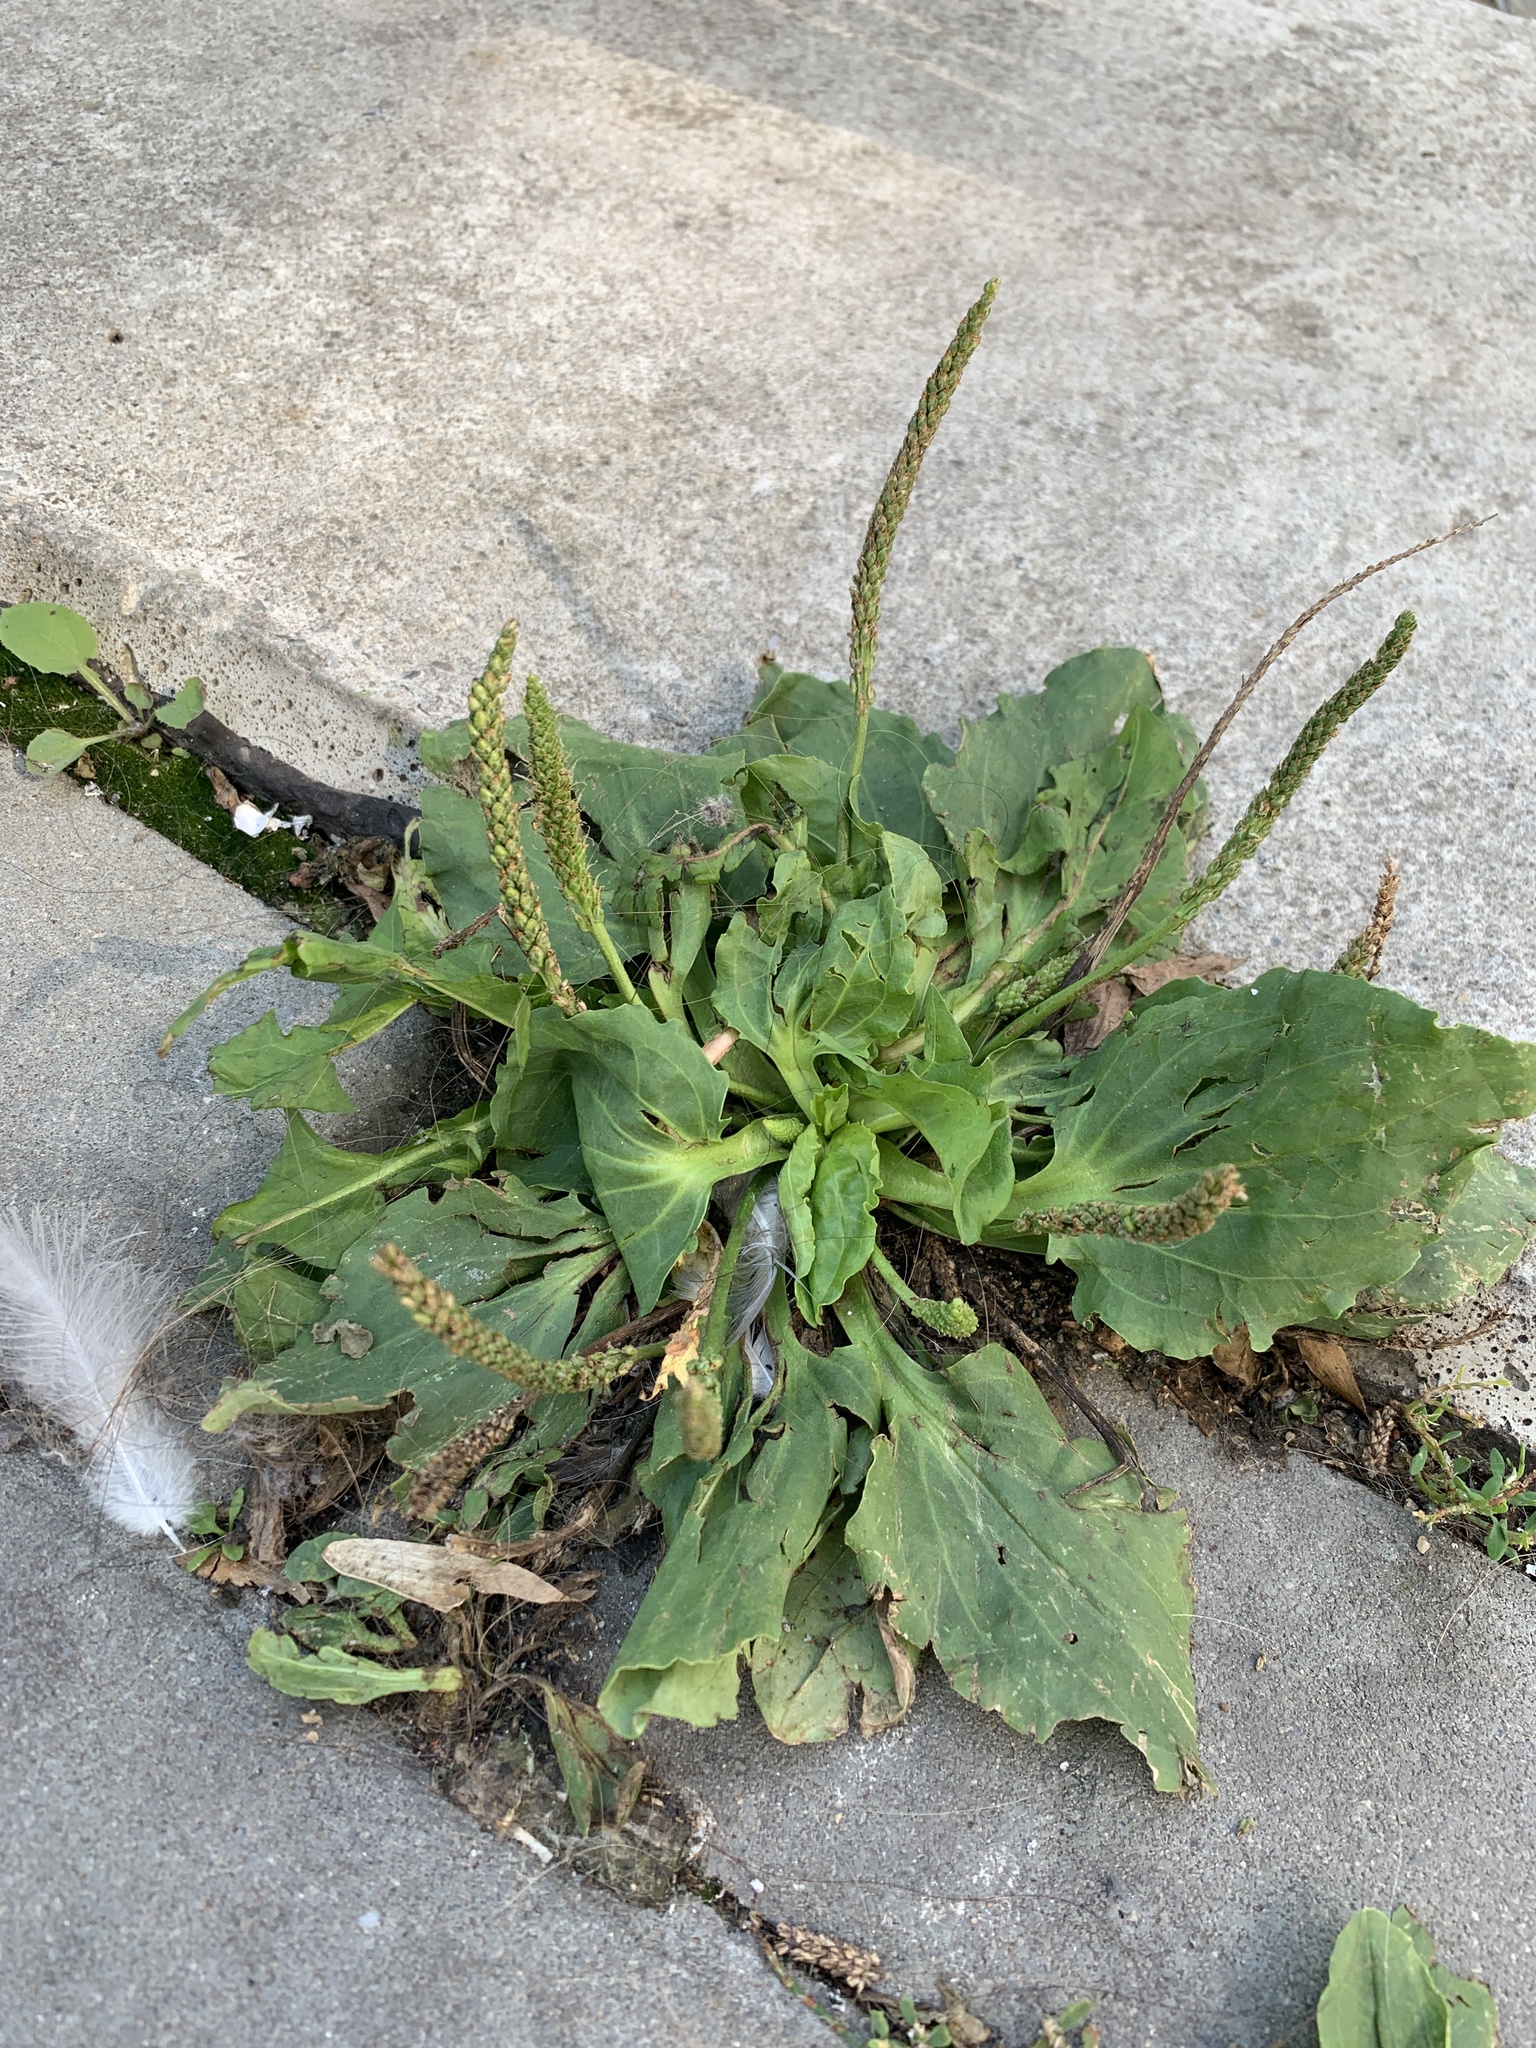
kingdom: Plantae
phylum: Tracheophyta
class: Magnoliopsida
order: Lamiales
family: Plantaginaceae
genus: Plantago
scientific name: Plantago major
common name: Common plantain
